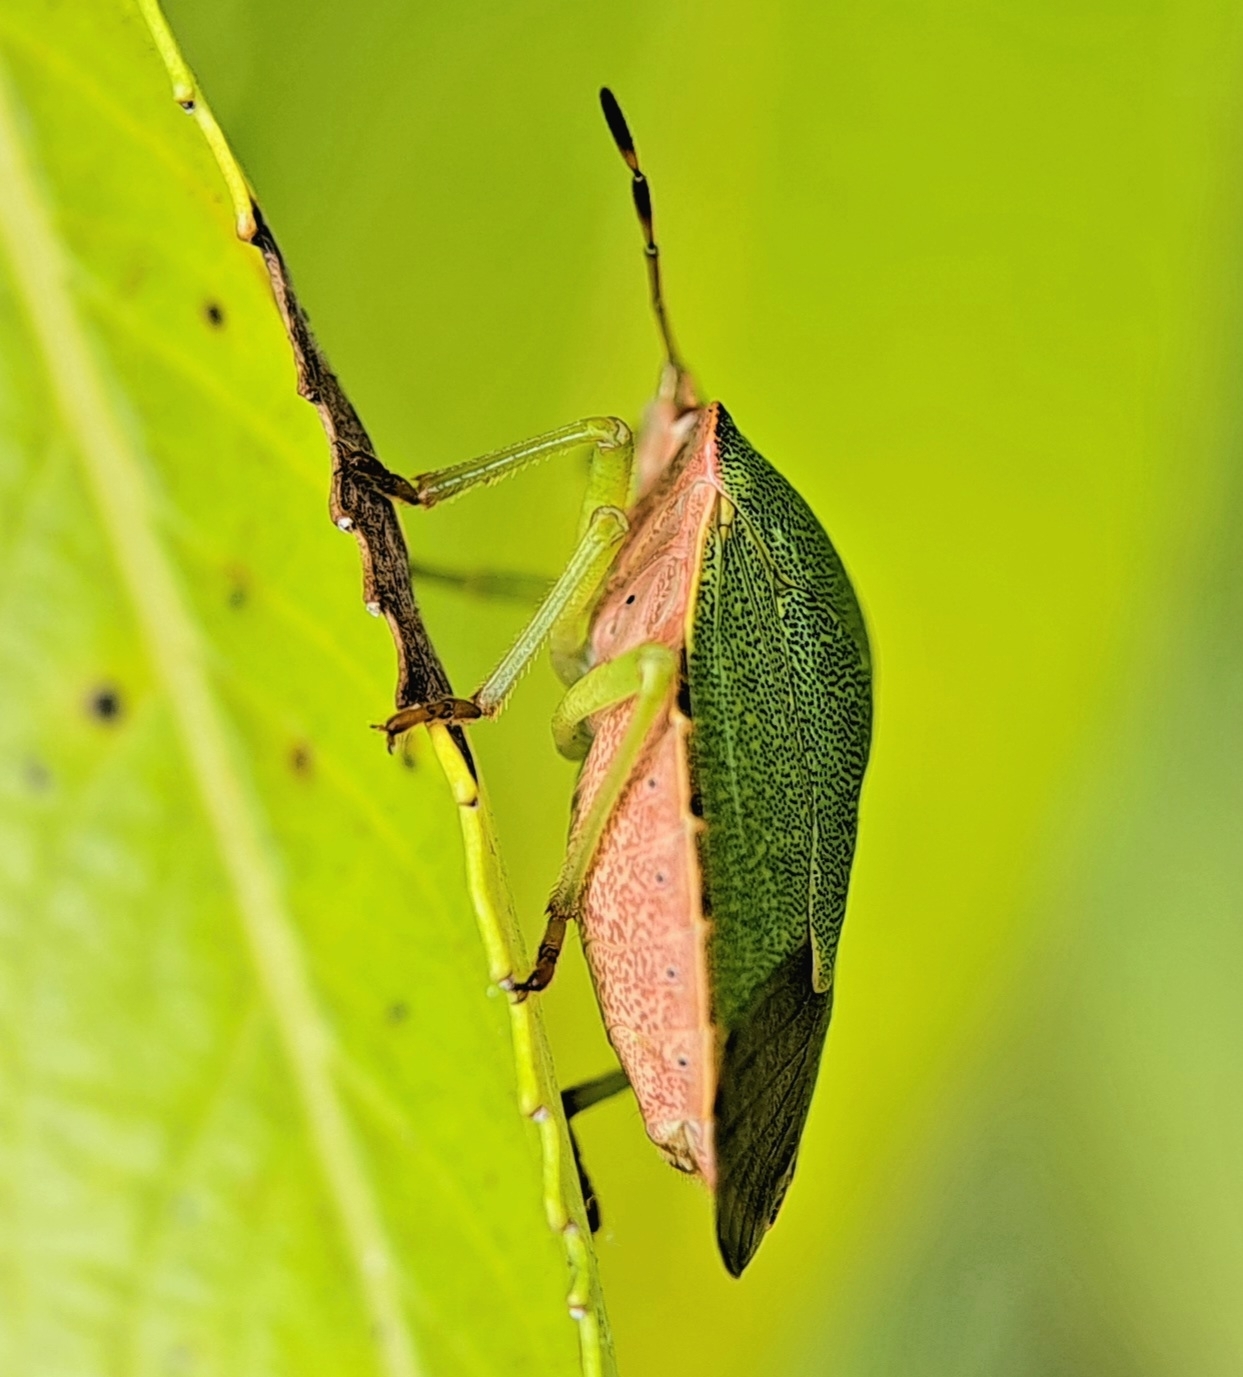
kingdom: Animalia
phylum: Arthropoda
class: Insecta
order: Hemiptera
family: Pentatomidae
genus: Palomena
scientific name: Palomena prasina
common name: Green shieldbug
